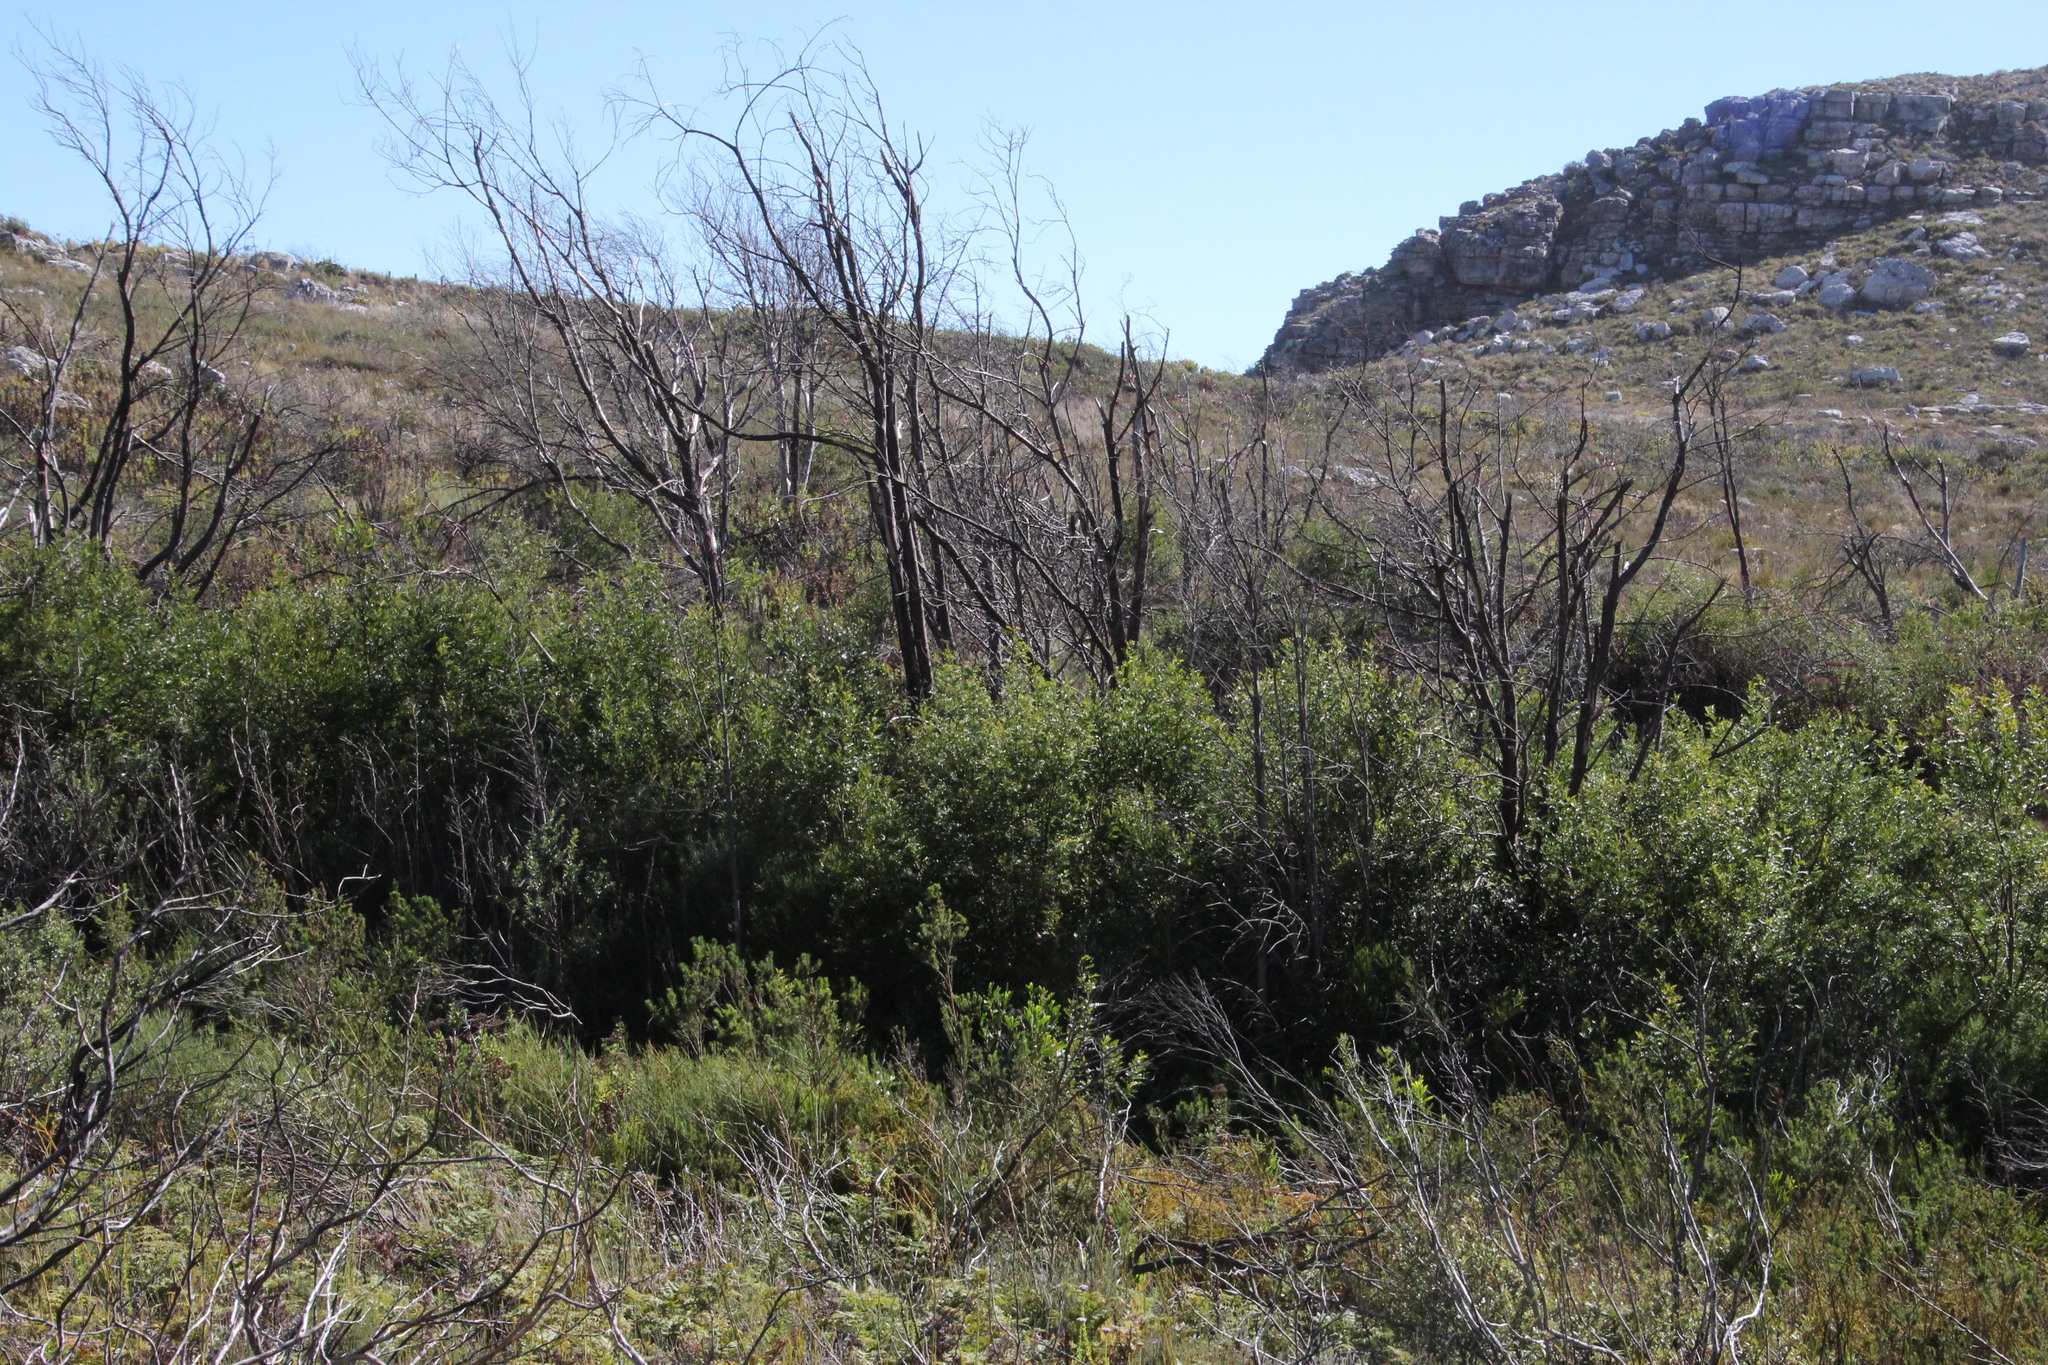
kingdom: Plantae
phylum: Tracheophyta
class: Magnoliopsida
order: Fabales
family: Fabaceae
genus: Virgilia
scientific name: Virgilia oroboides
